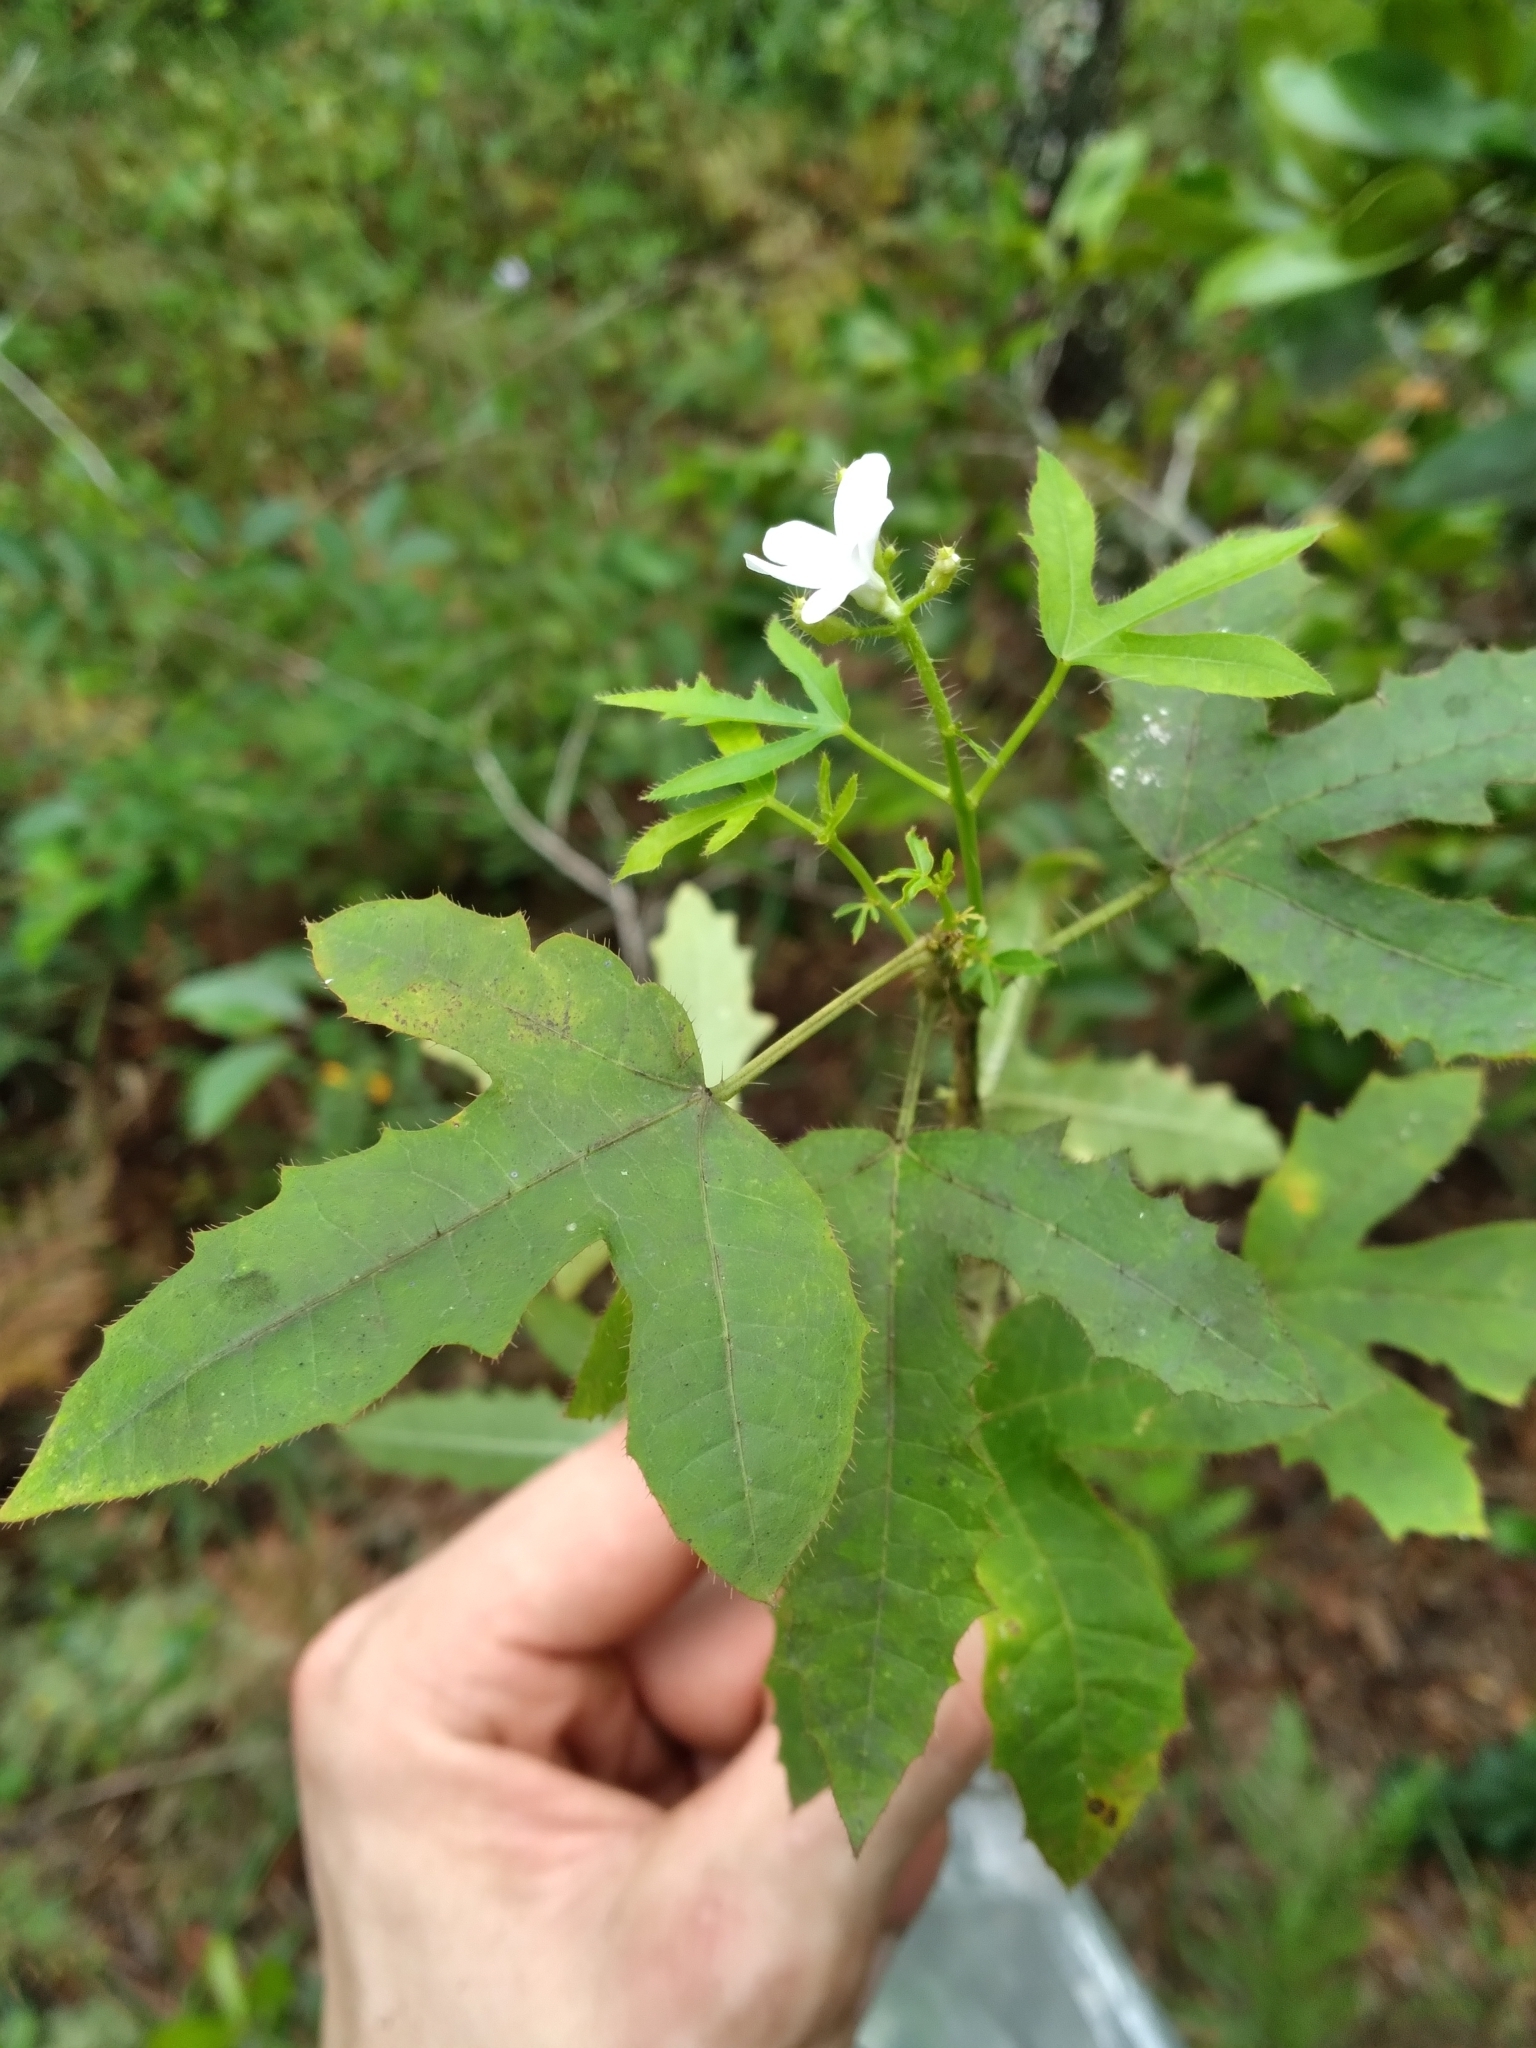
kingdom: Plantae
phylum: Tracheophyta
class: Magnoliopsida
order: Malpighiales
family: Euphorbiaceae
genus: Cnidoscolus
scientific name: Cnidoscolus stimulosus
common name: Bull-nettle
